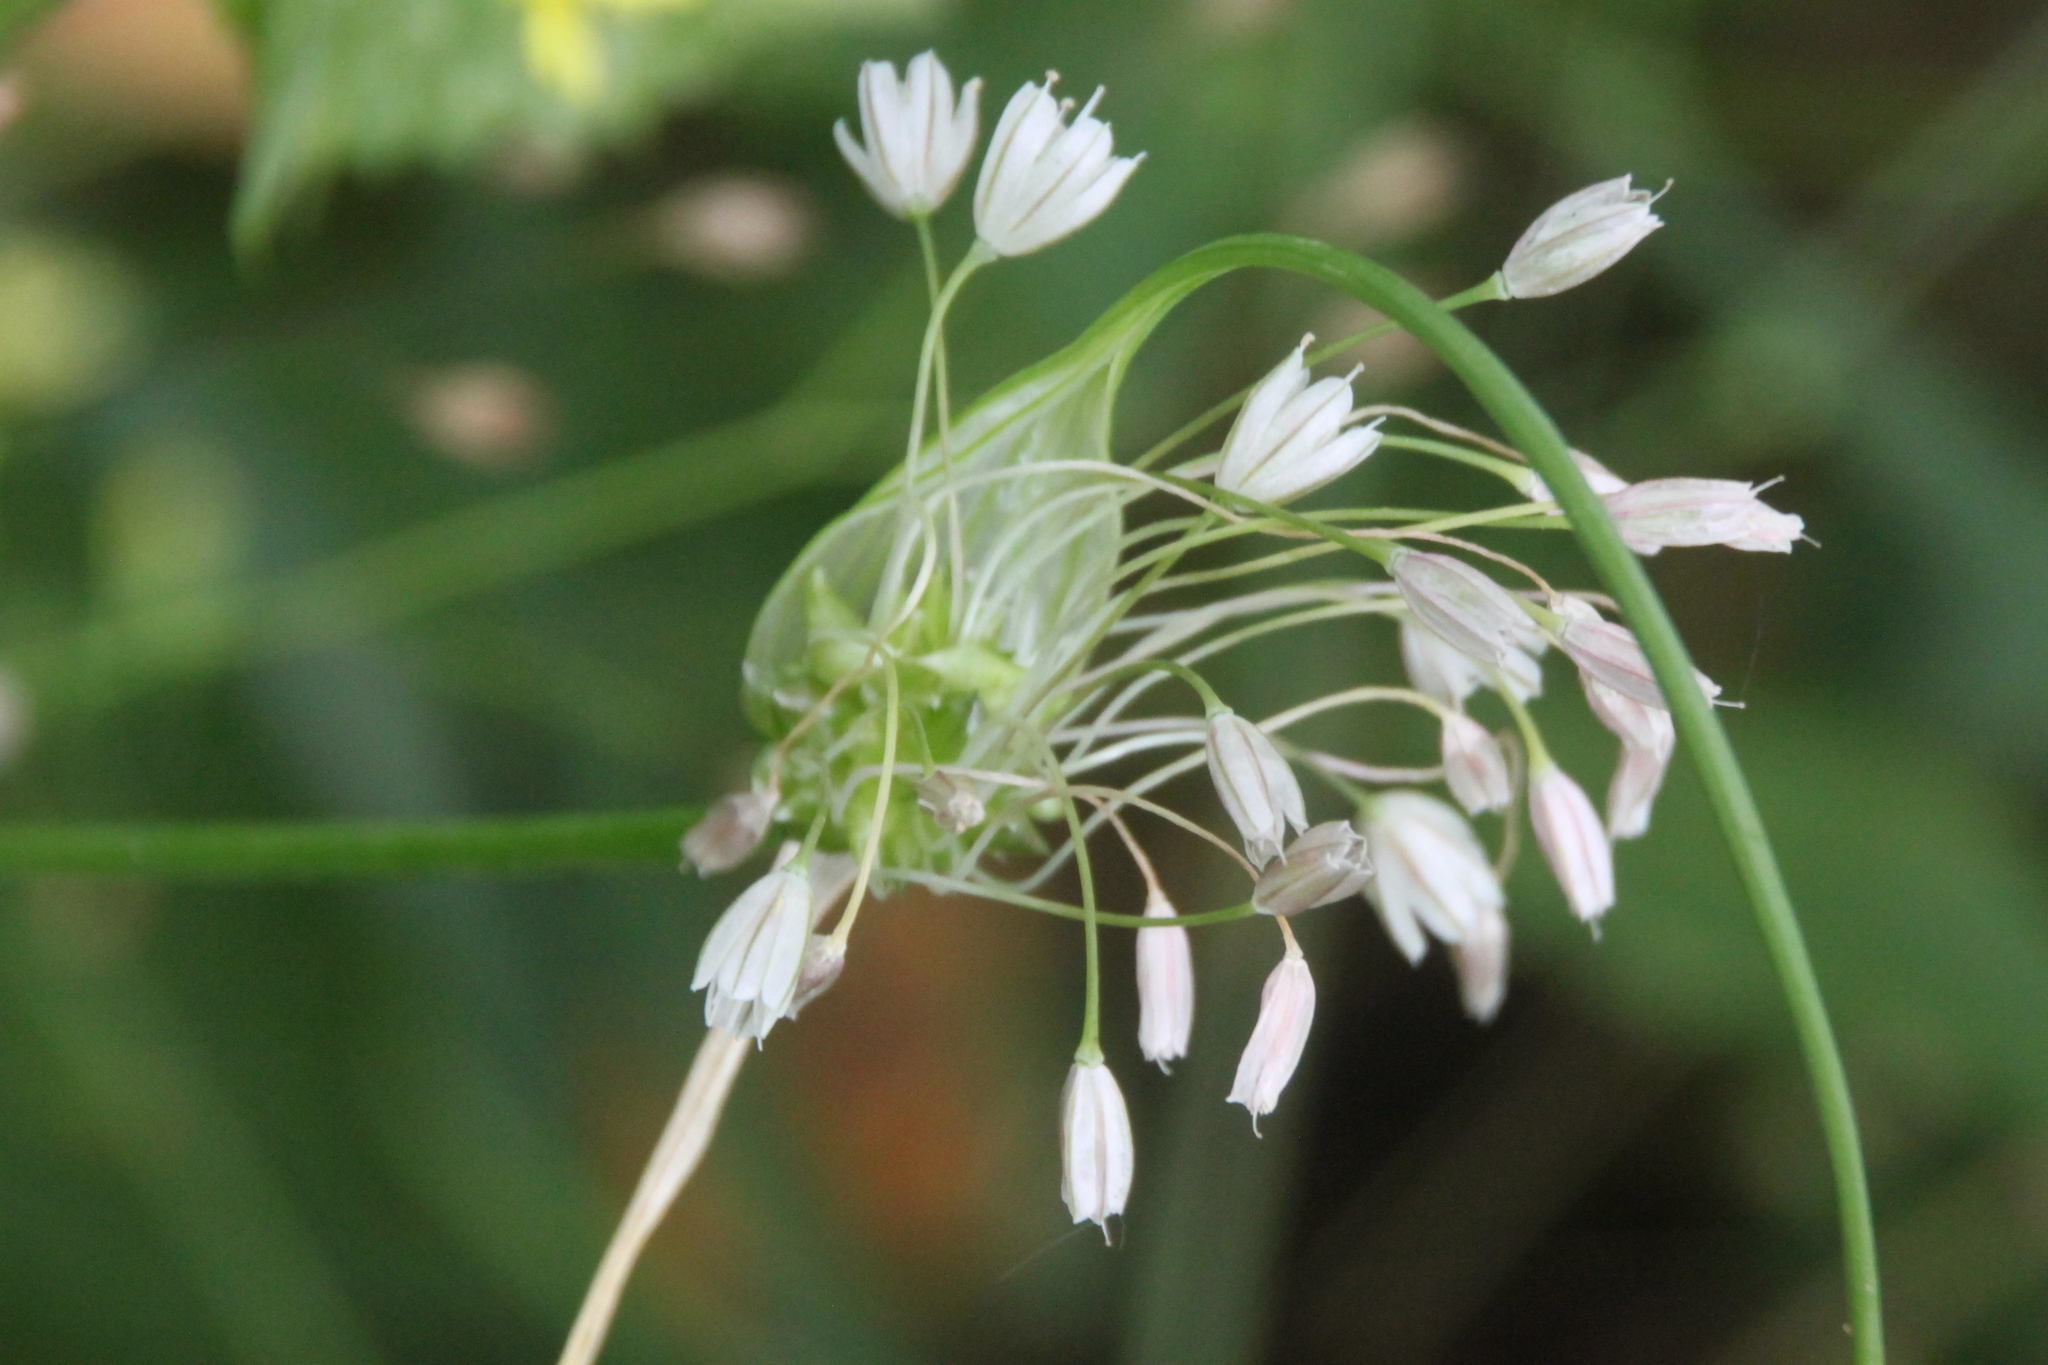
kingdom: Plantae
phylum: Tracheophyta
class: Liliopsida
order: Asparagales
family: Amaryllidaceae
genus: Allium
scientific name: Allium oleraceum
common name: Field garlic
